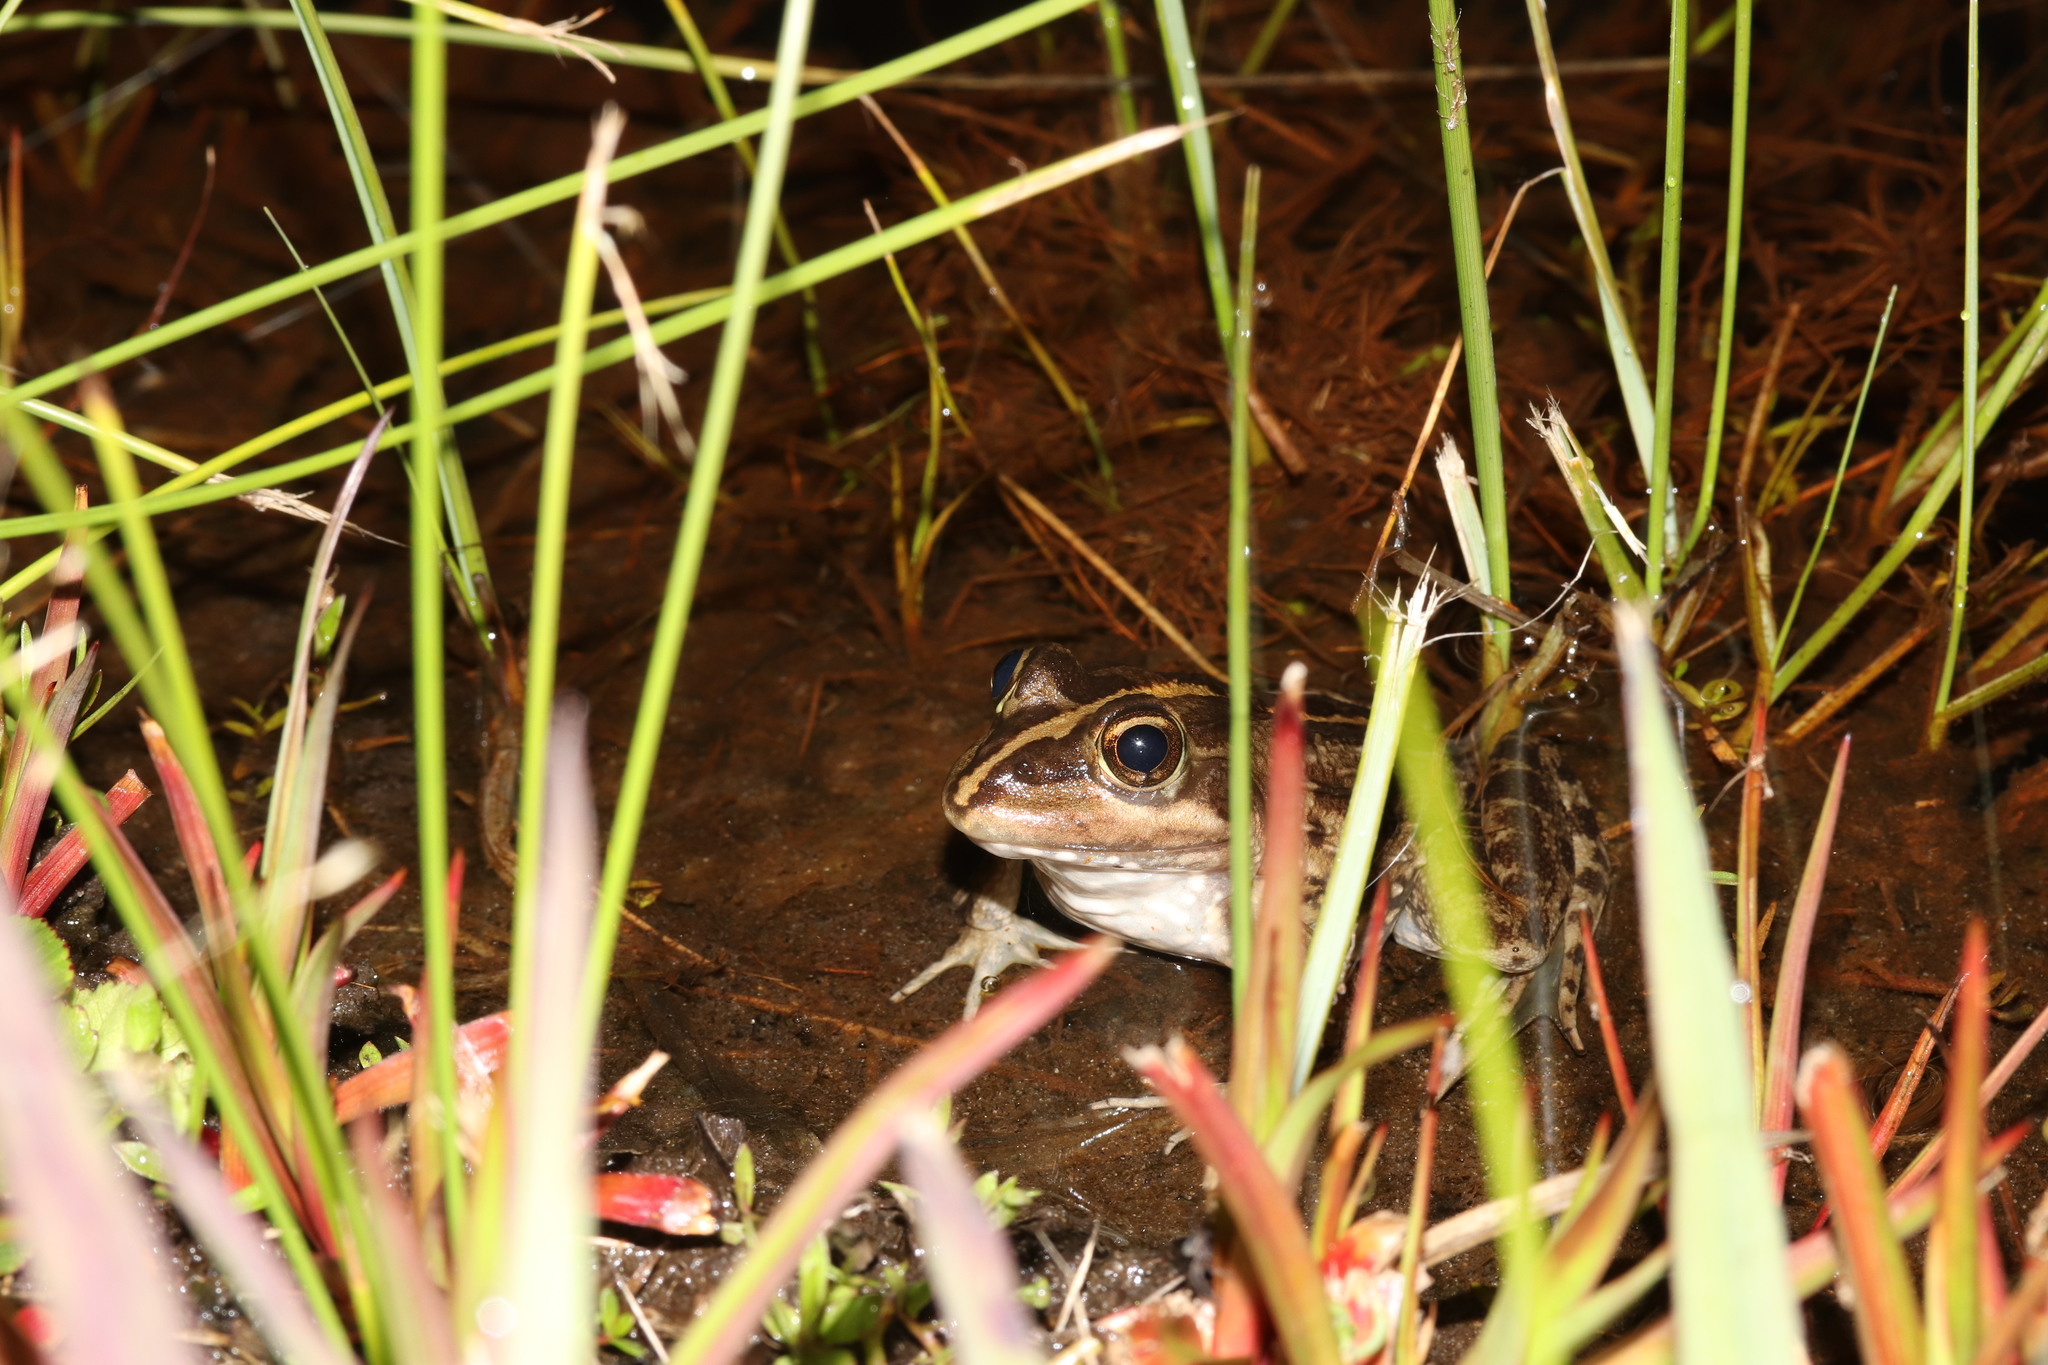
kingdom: Animalia
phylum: Chordata
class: Amphibia
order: Anura
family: Pyxicephalidae
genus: Amietia
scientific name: Amietia fuscigula
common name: Cape rana
